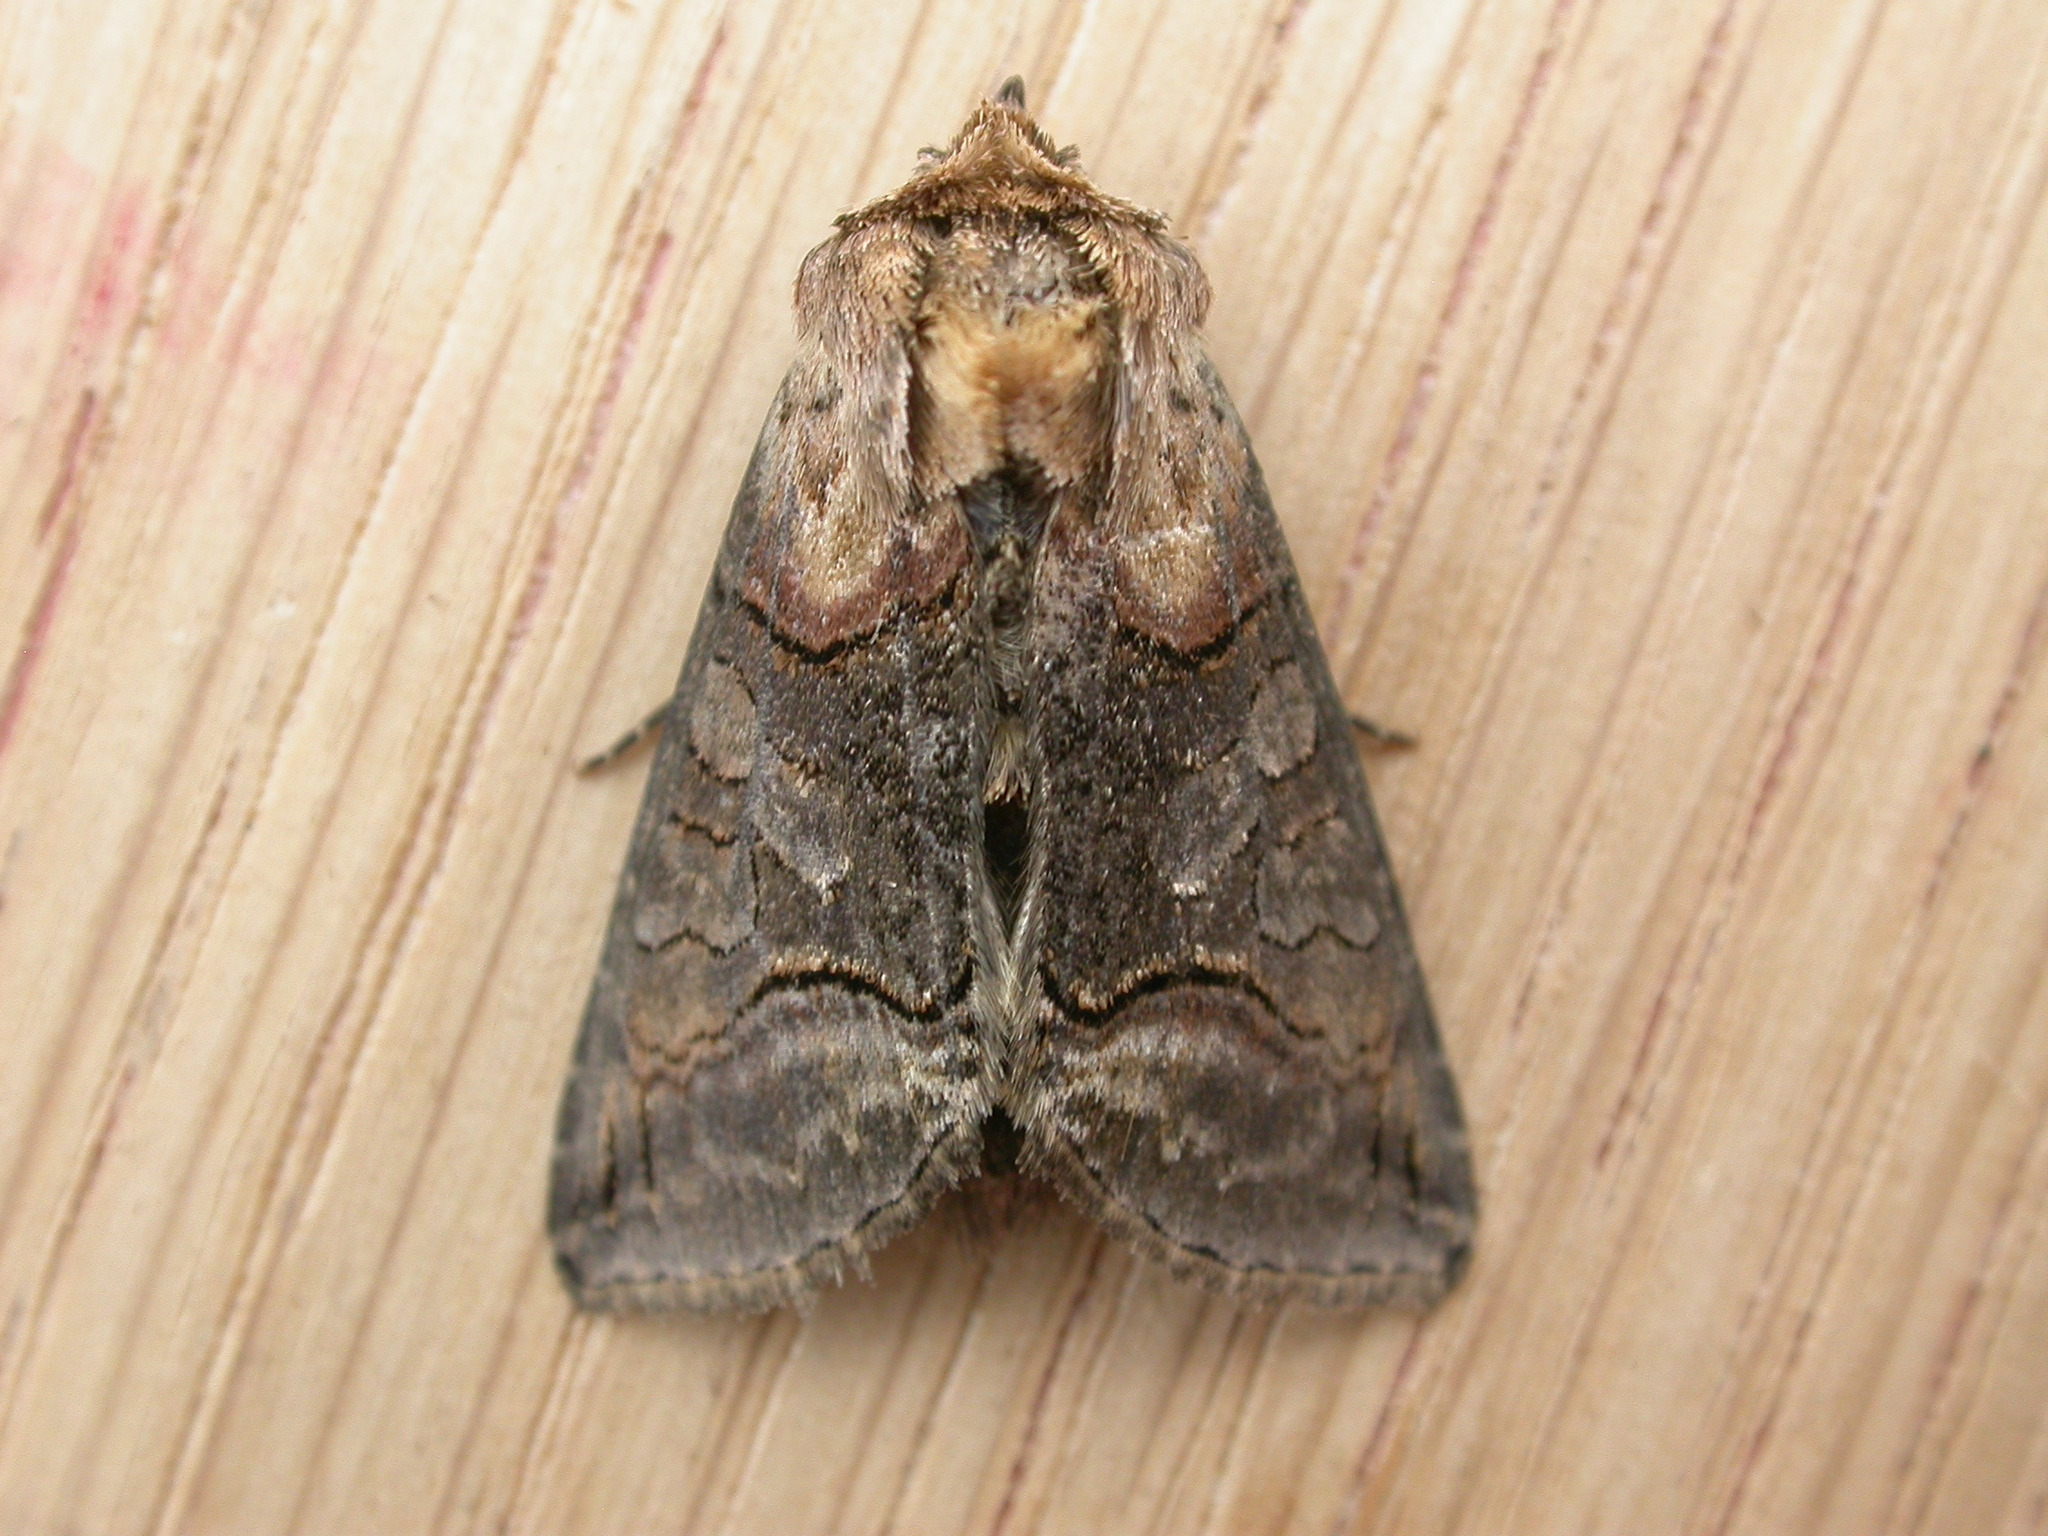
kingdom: Animalia
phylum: Arthropoda
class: Insecta
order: Lepidoptera
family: Noctuidae
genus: Abrostola
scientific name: Abrostola triplasia
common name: Dark spectacle
